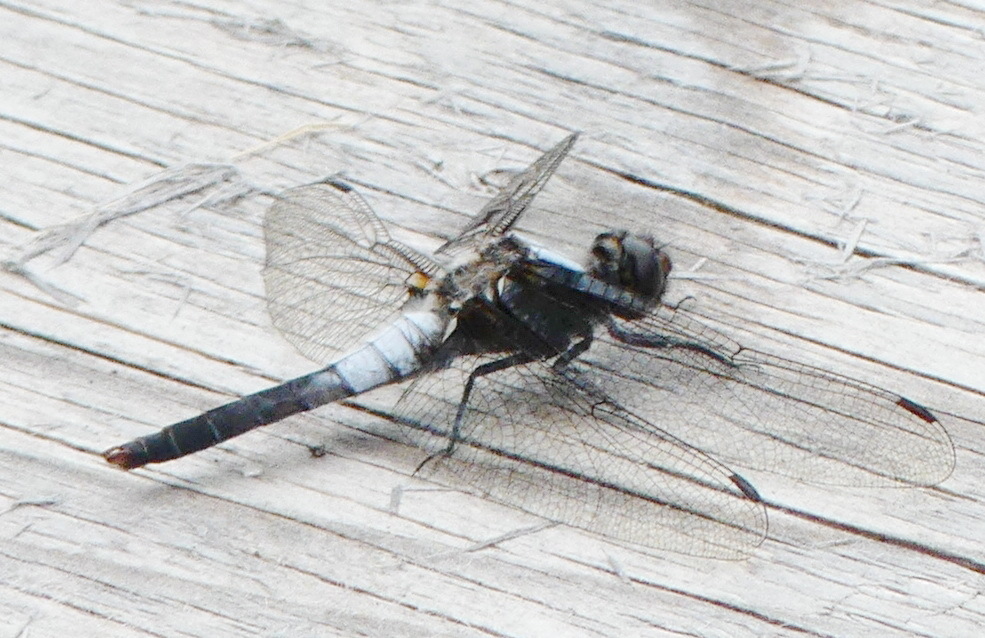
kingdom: Animalia
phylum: Arthropoda
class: Insecta
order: Odonata
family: Libellulidae
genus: Ladona
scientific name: Ladona julia
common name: Chalk-fronted corporal
